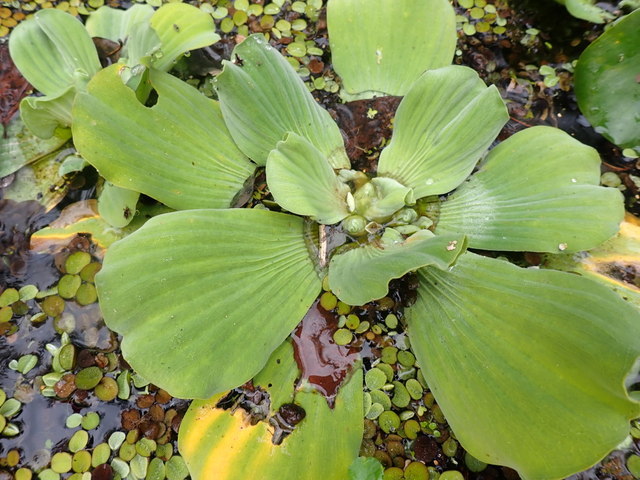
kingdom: Plantae
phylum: Tracheophyta
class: Liliopsida
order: Alismatales
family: Araceae
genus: Pistia
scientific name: Pistia stratiotes
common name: Water lettuce
